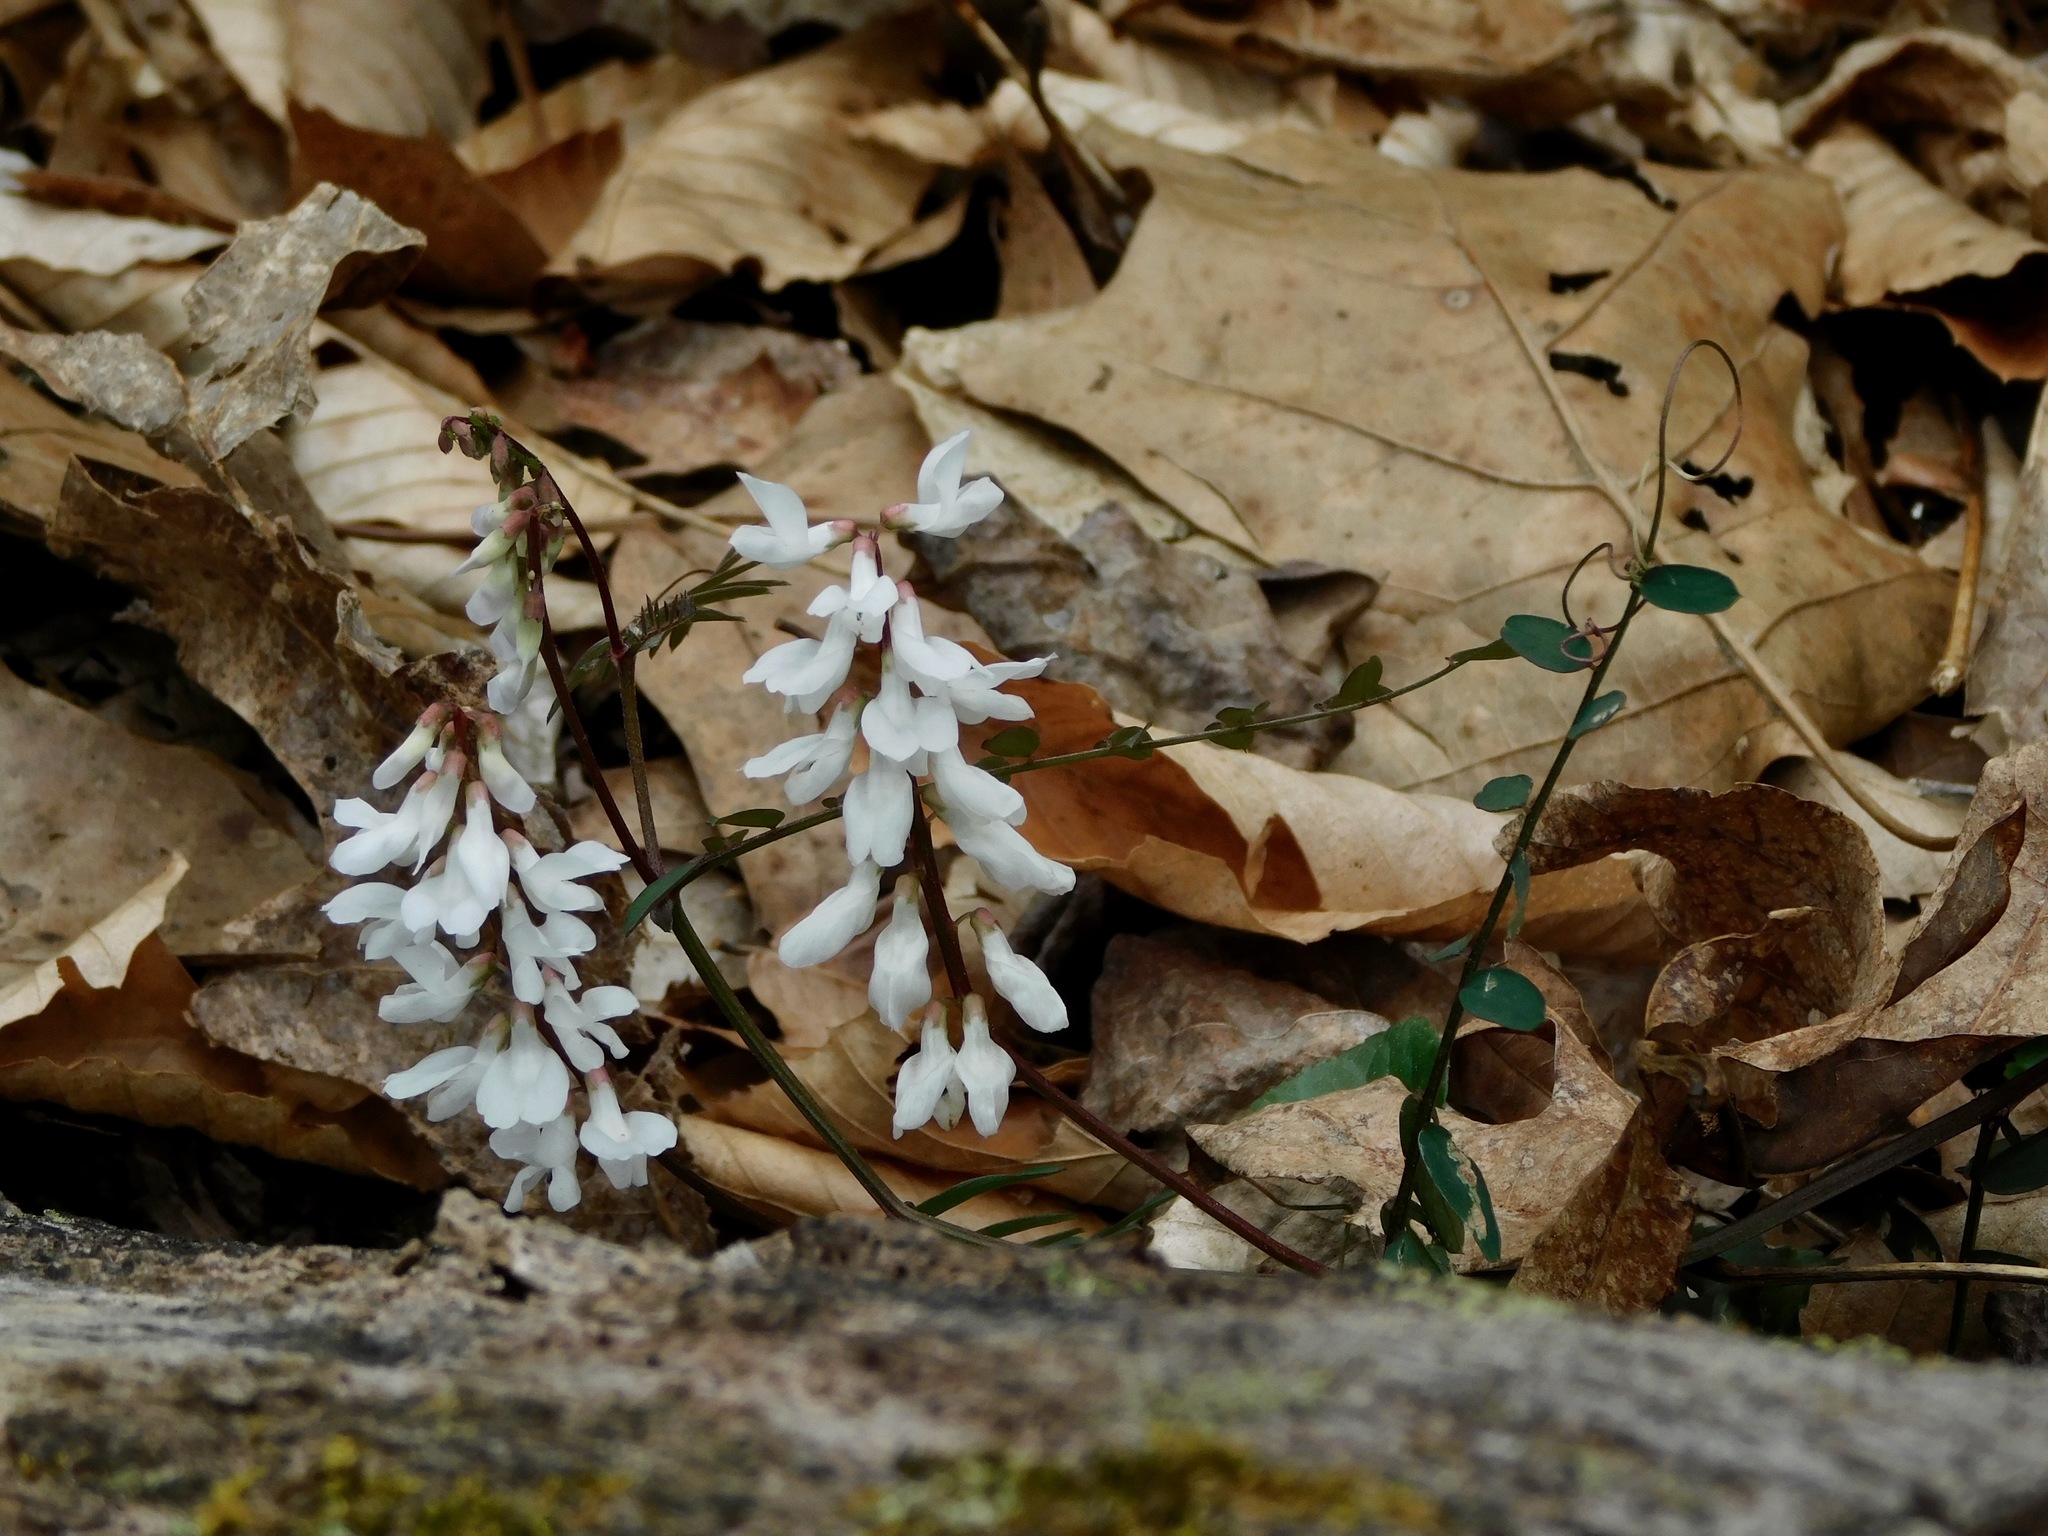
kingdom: Plantae
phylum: Tracheophyta
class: Magnoliopsida
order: Fabales
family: Fabaceae
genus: Vicia
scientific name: Vicia caroliniana
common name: Carolina vetch
